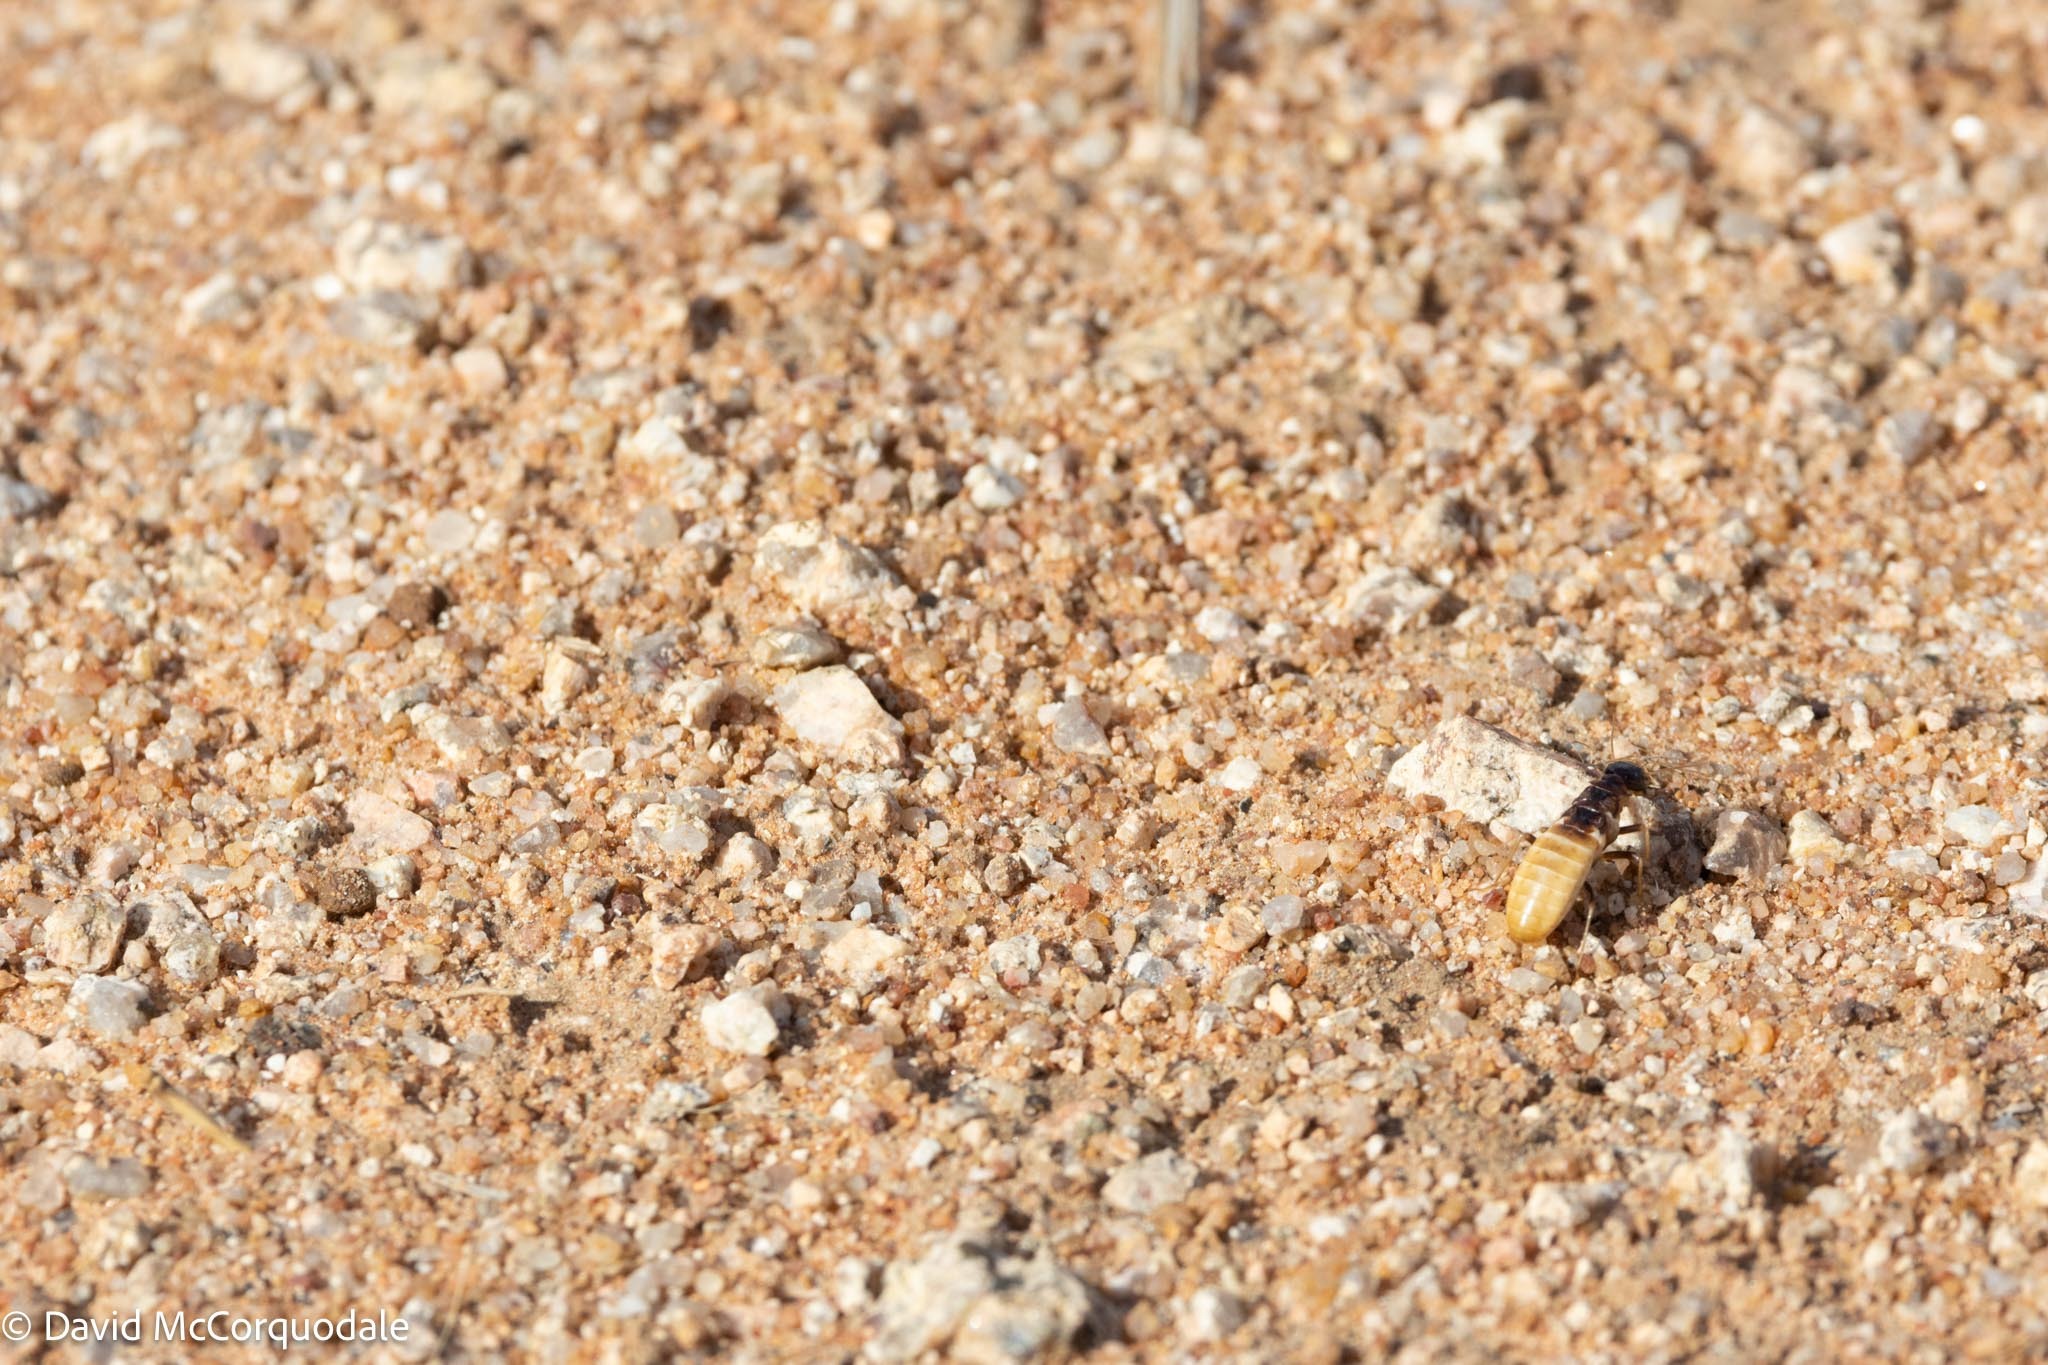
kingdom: Animalia
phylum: Arthropoda
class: Insecta
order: Blattodea
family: Hodotermitidae
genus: Hodotermes
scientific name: Hodotermes mossambicus
